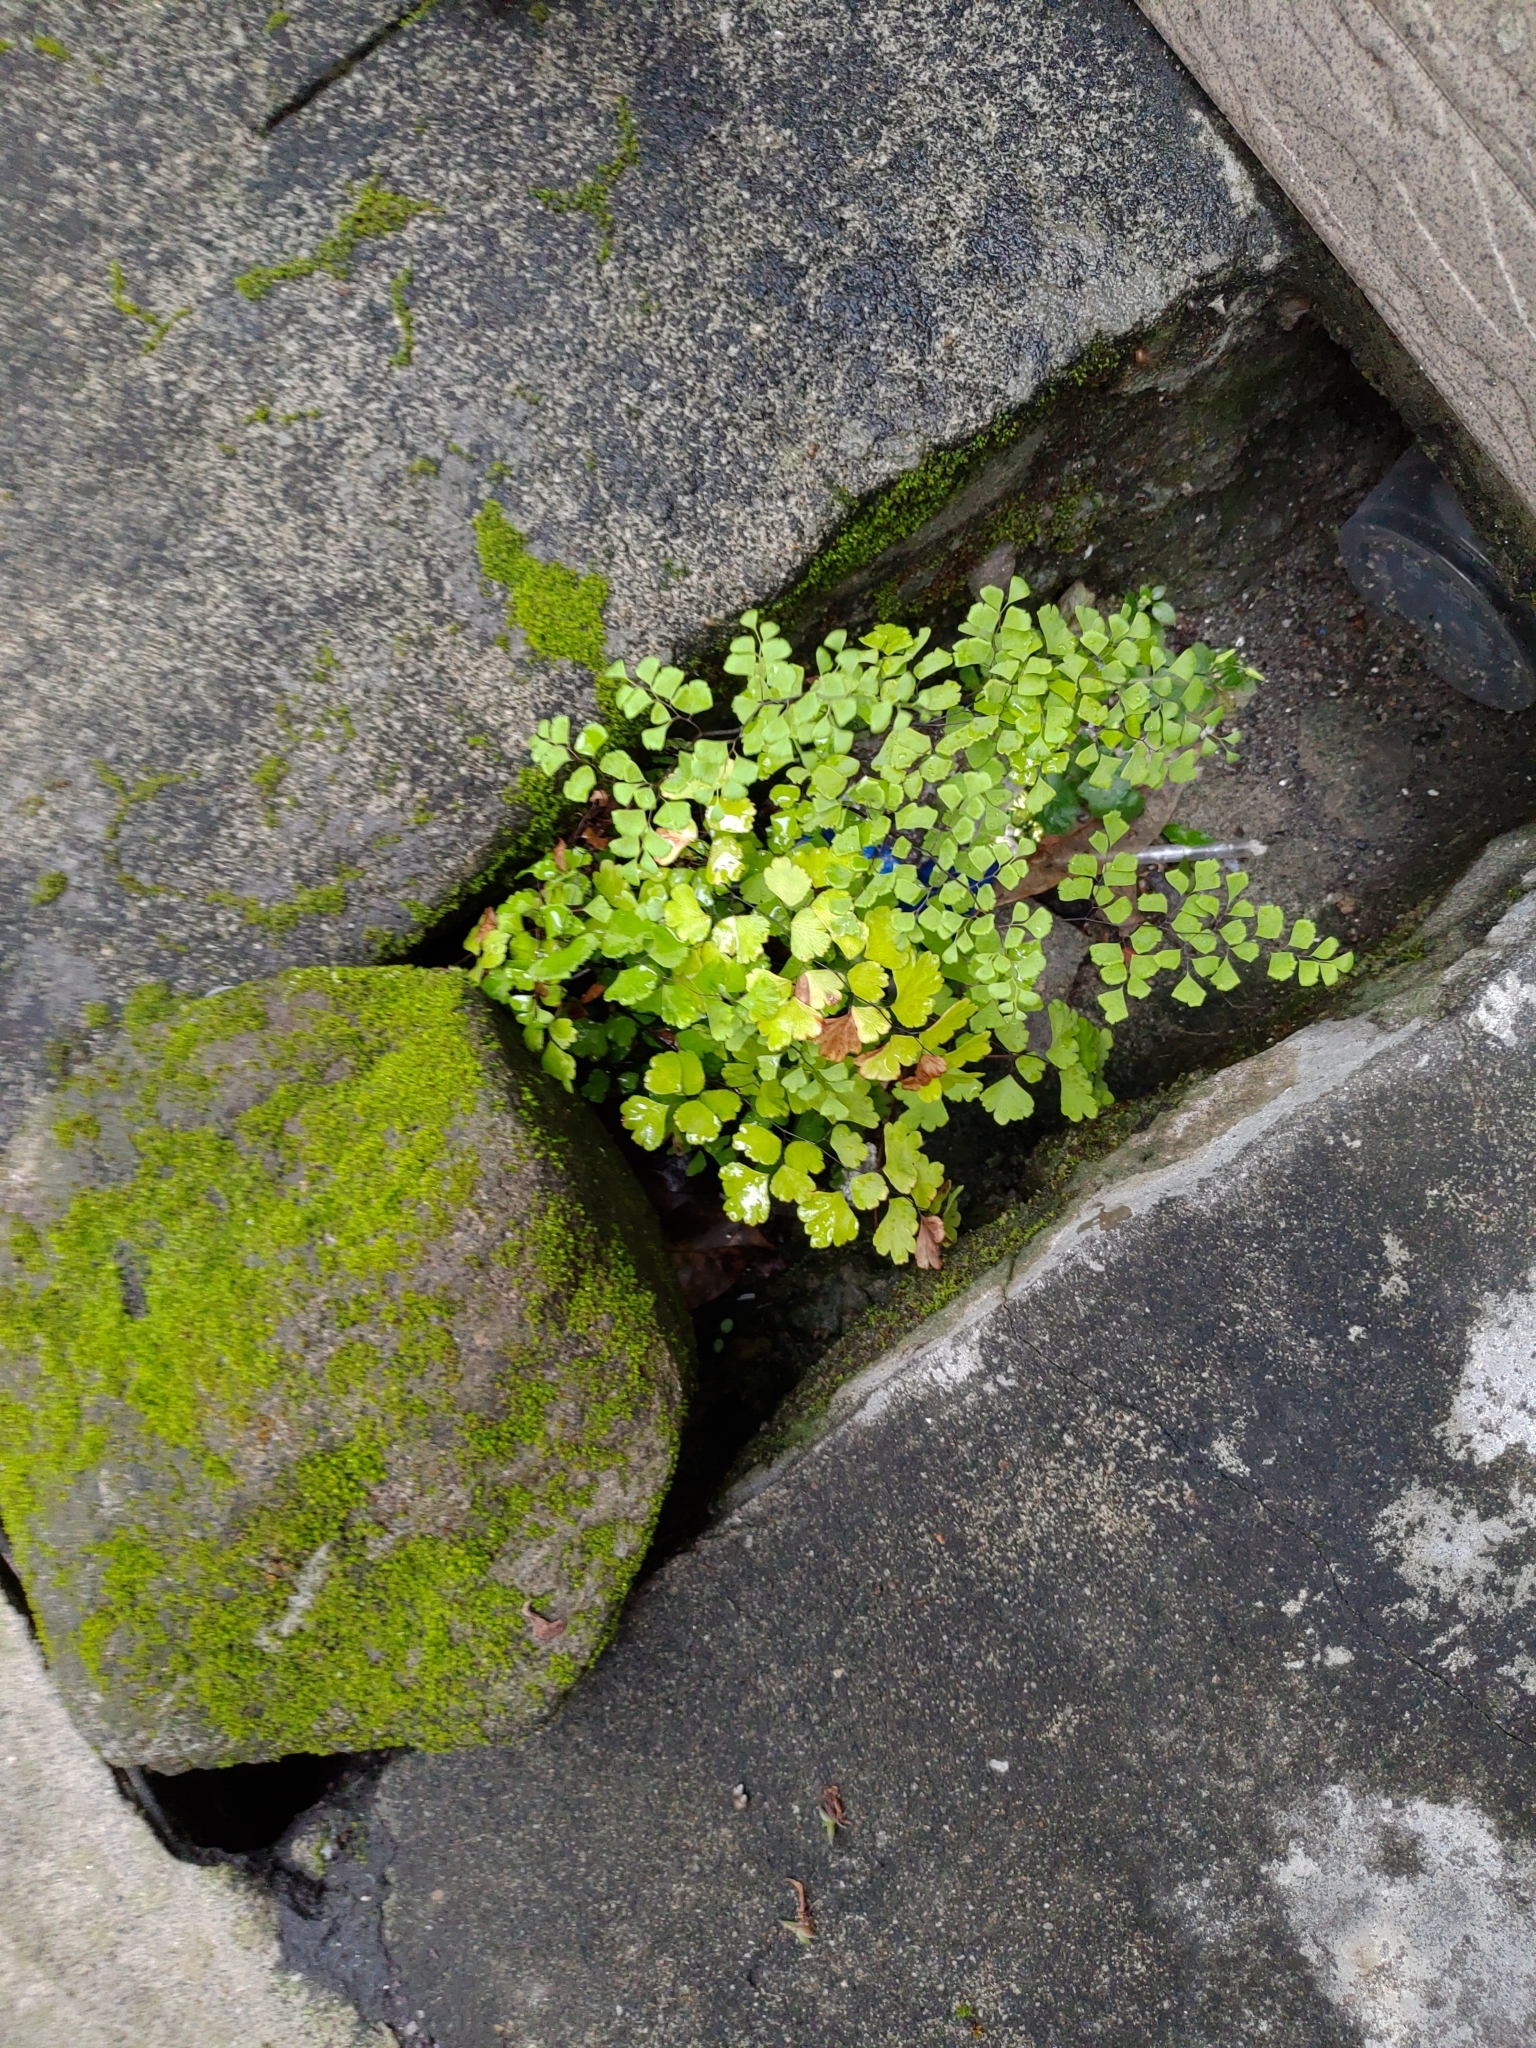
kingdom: Plantae
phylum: Tracheophyta
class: Polypodiopsida
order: Polypodiales
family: Pteridaceae
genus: Adiantum
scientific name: Adiantum capillus-veneris
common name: Maidenhair fern
